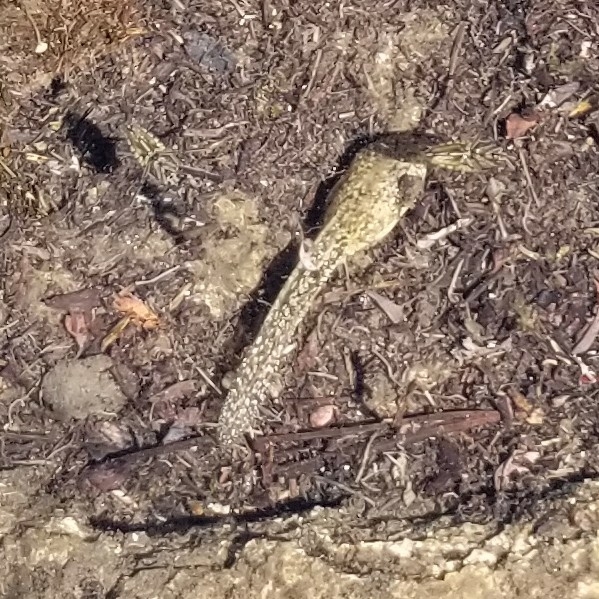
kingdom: Animalia
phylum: Chordata
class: Amphibia
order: Anura
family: Ranidae
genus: Rana
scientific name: Rana sierrae
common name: Sierra nevada yellow-legged frog
